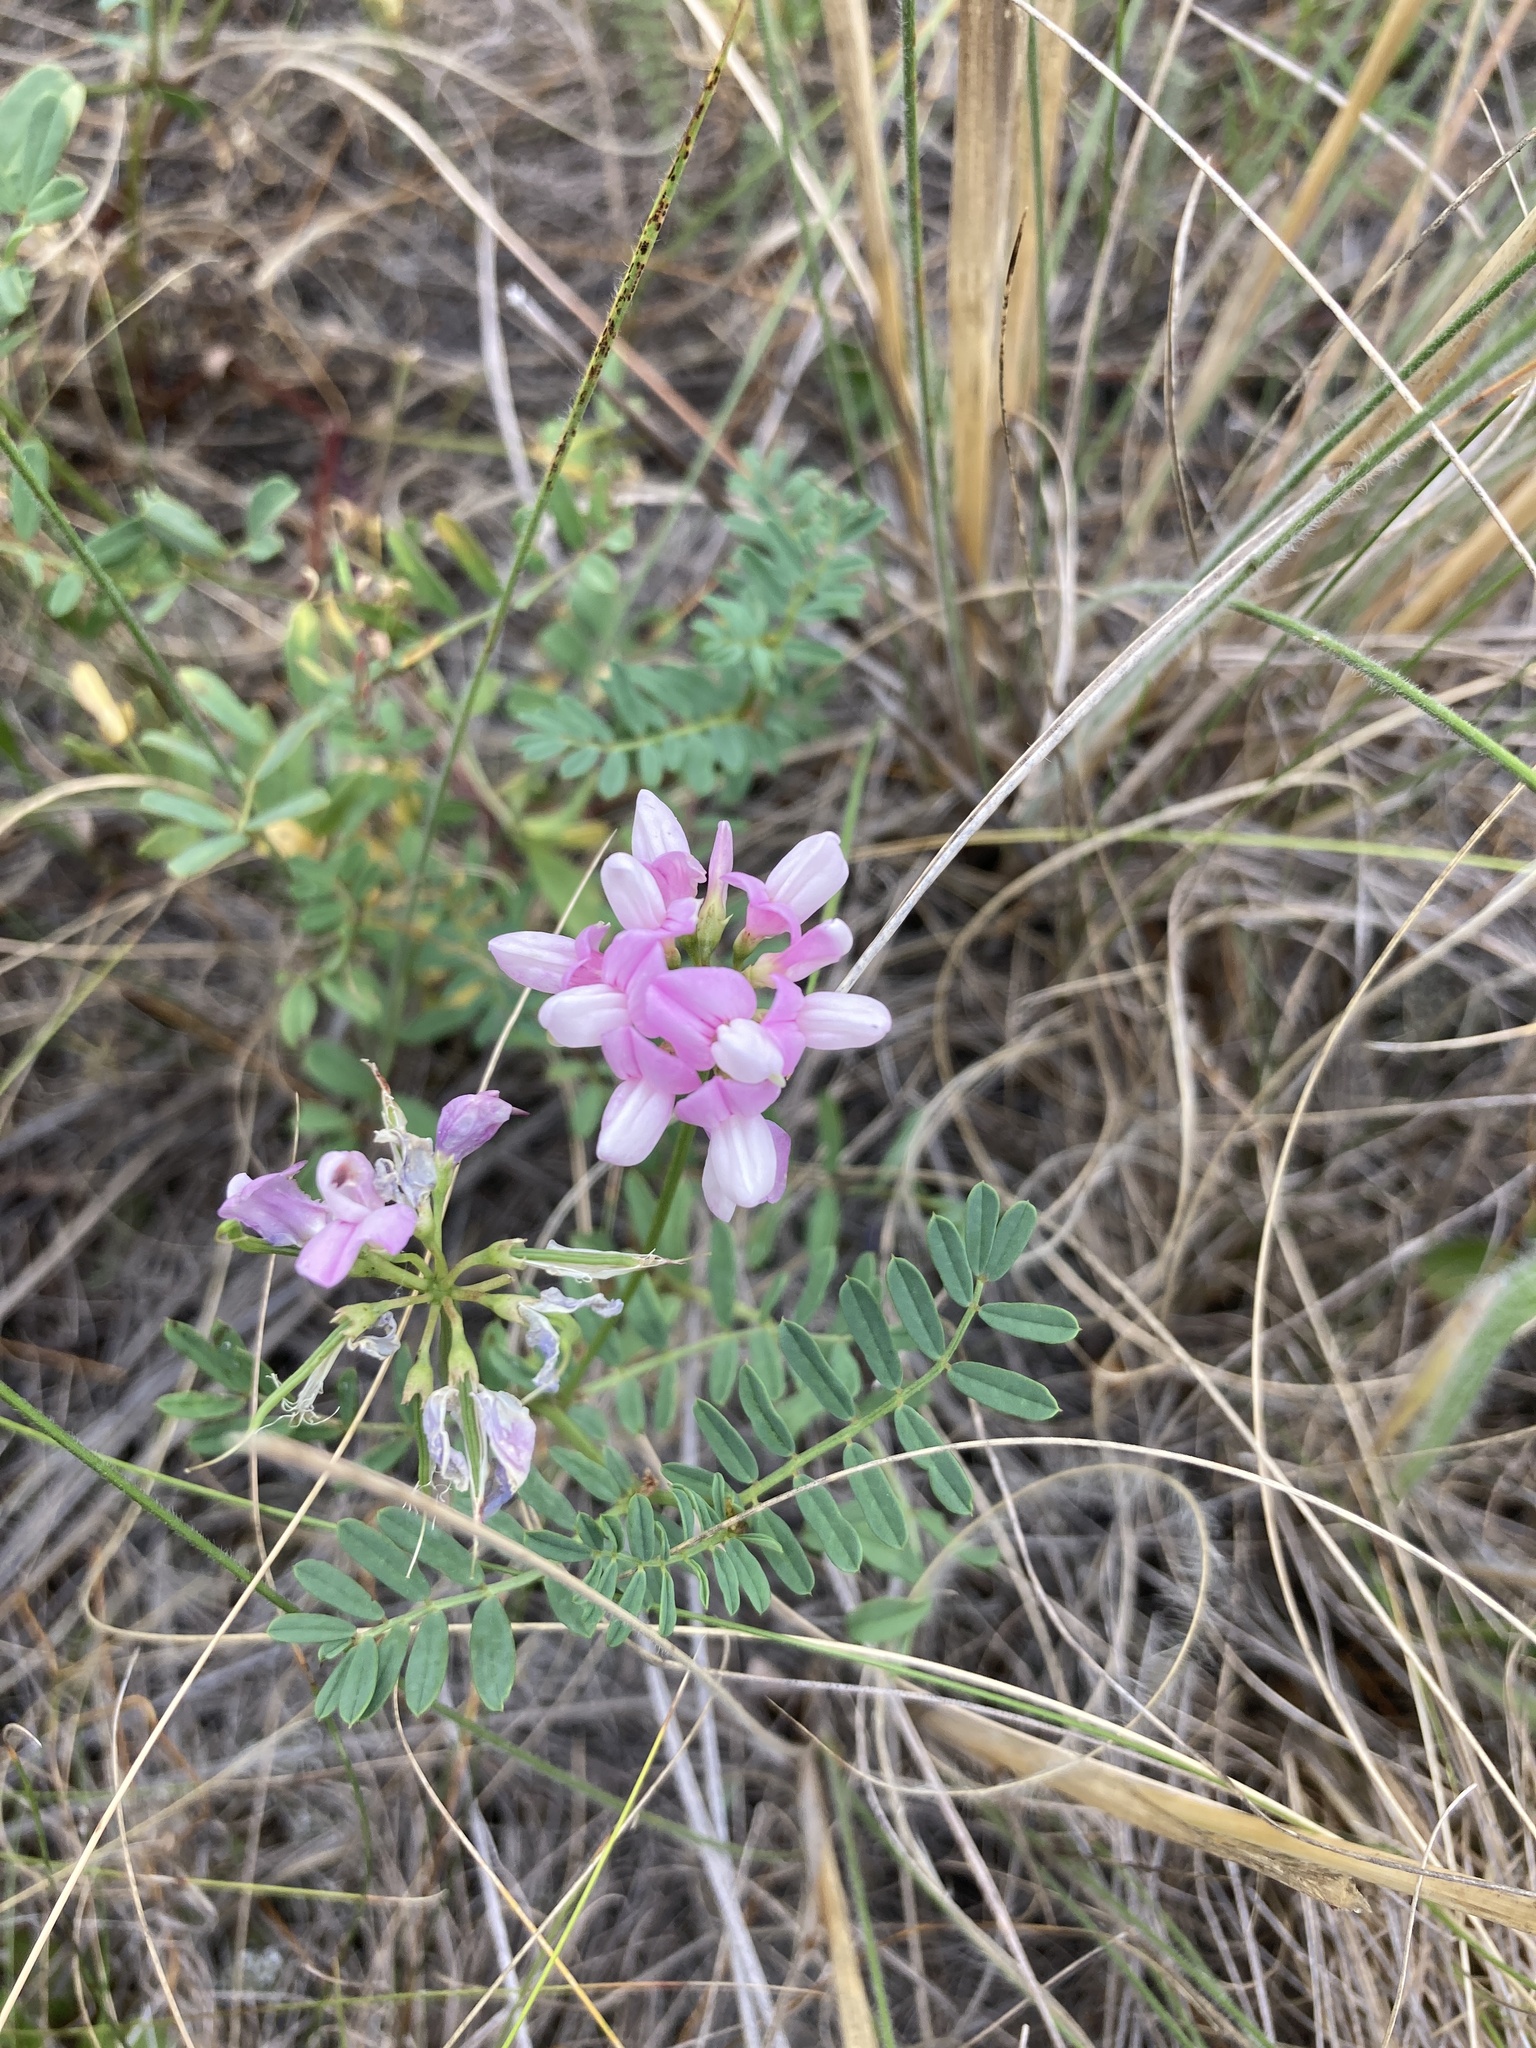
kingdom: Plantae
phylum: Tracheophyta
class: Magnoliopsida
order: Fabales
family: Fabaceae
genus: Coronilla
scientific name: Coronilla varia
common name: Crownvetch
